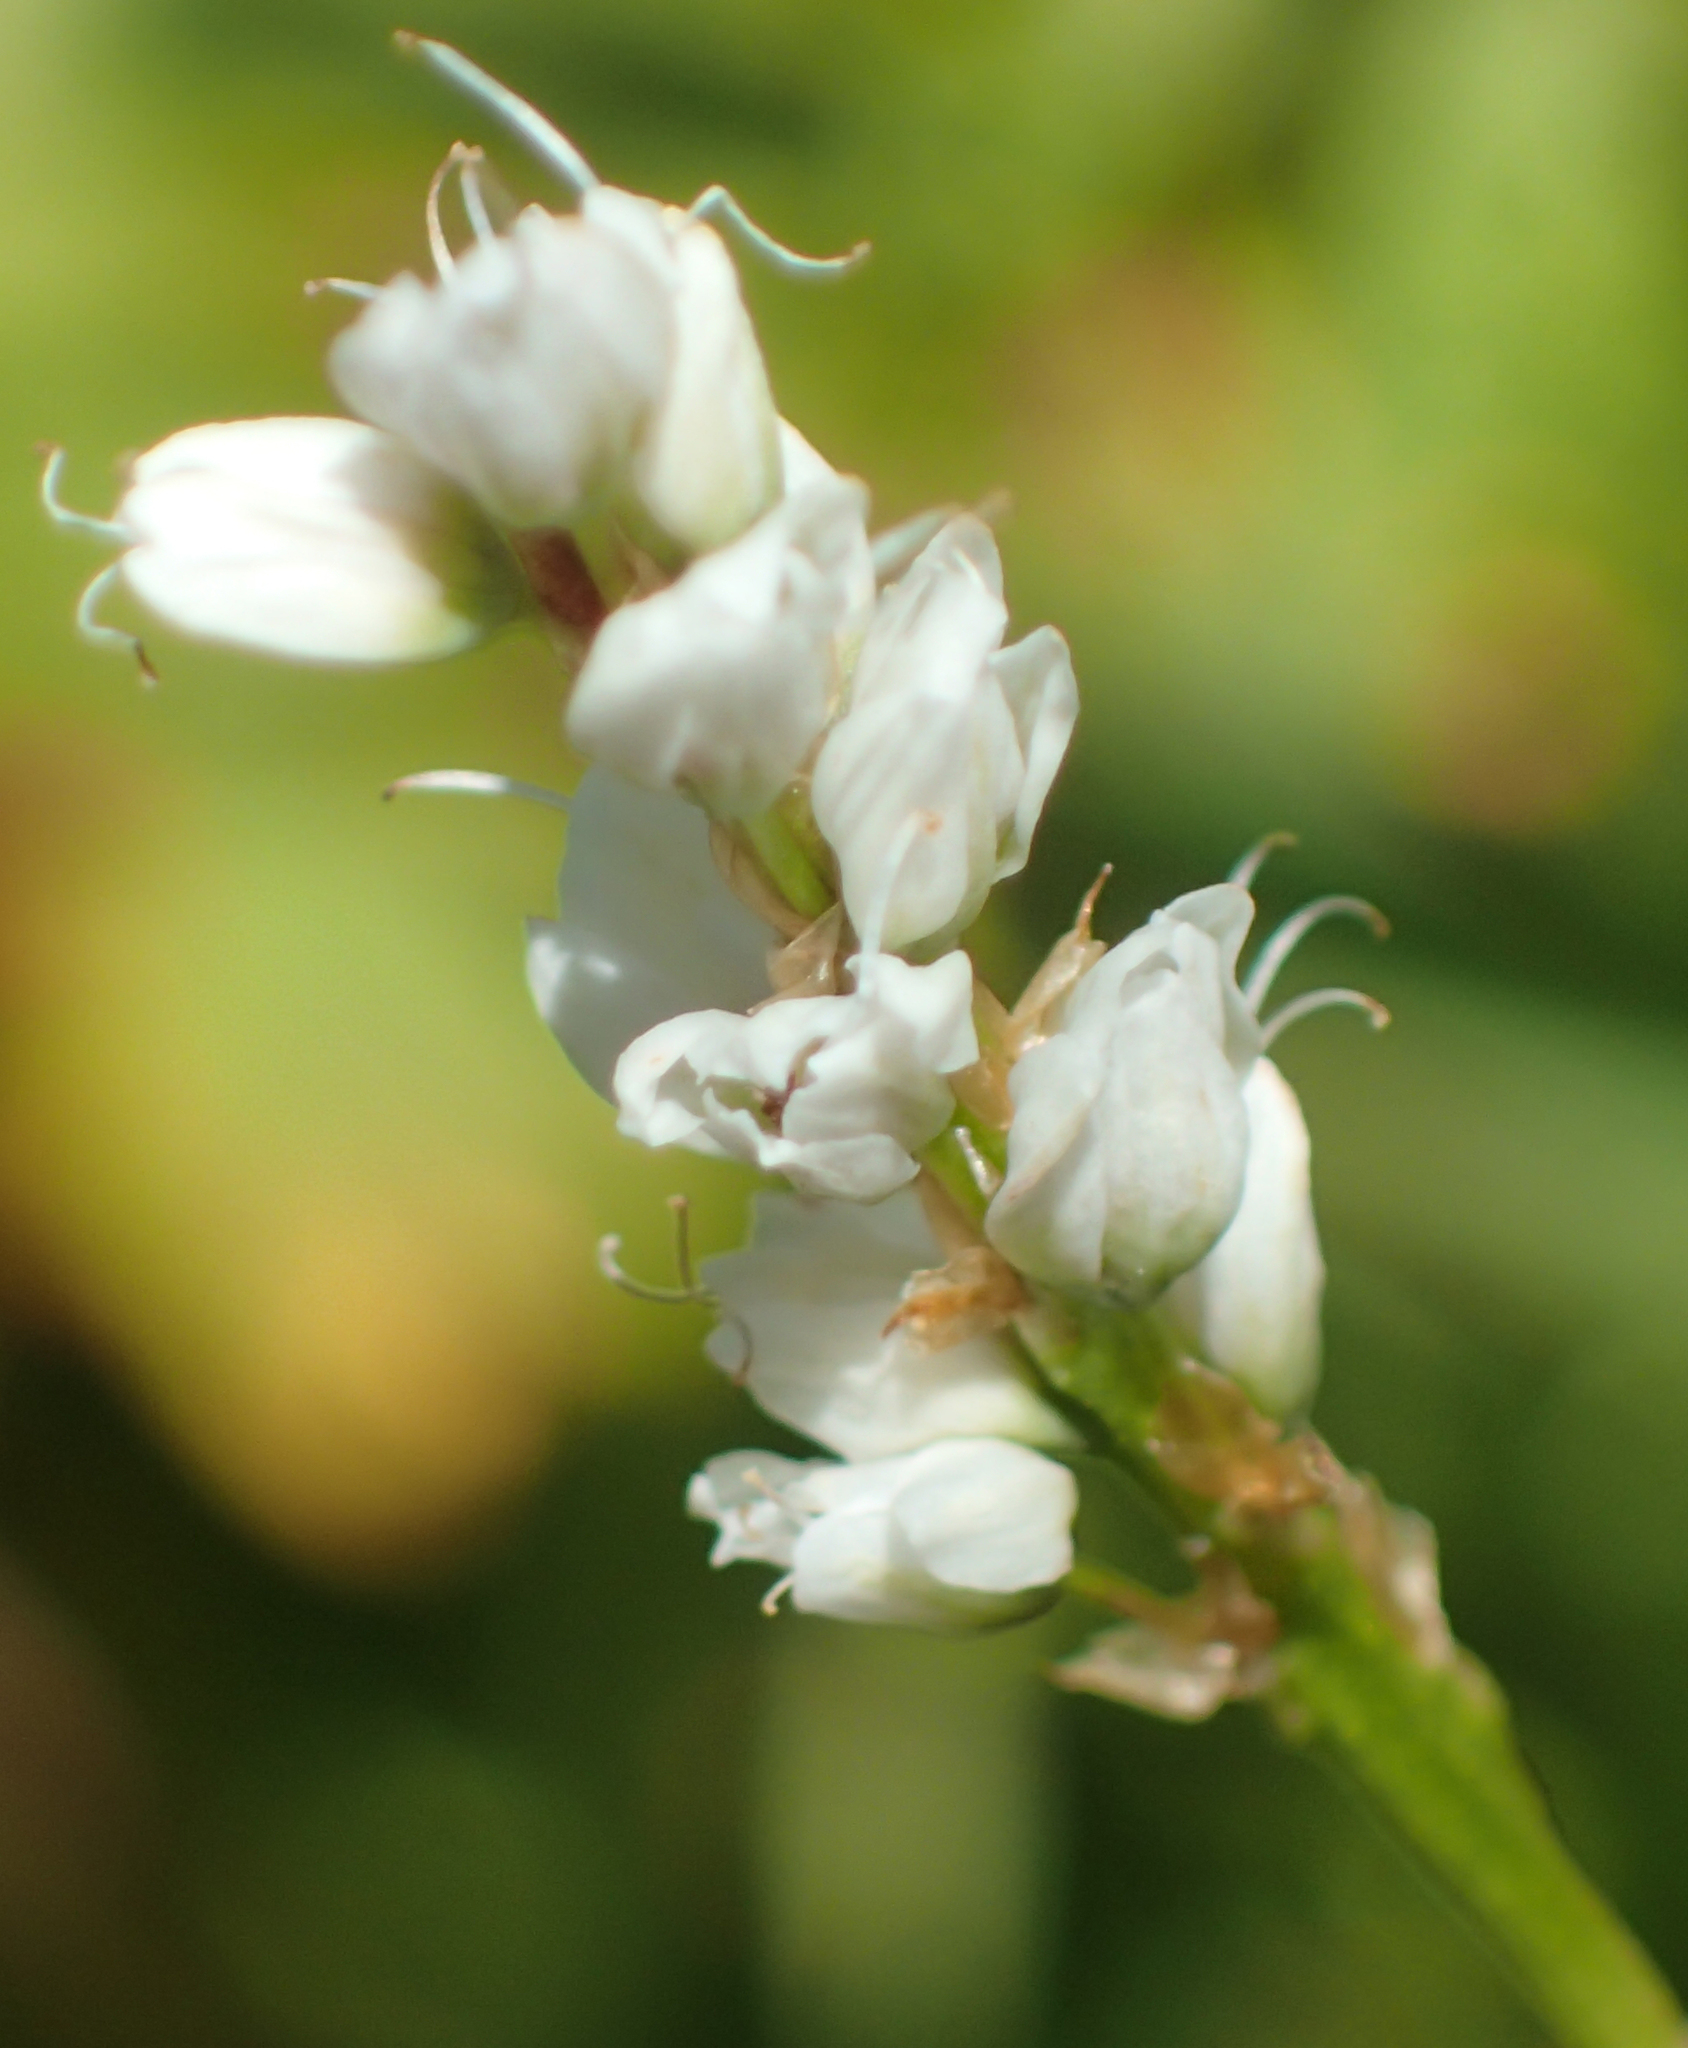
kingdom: Plantae
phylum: Tracheophyta
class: Magnoliopsida
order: Caryophyllales
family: Polygonaceae
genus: Bistorta
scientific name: Bistorta vivipara
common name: Alpine bistort
